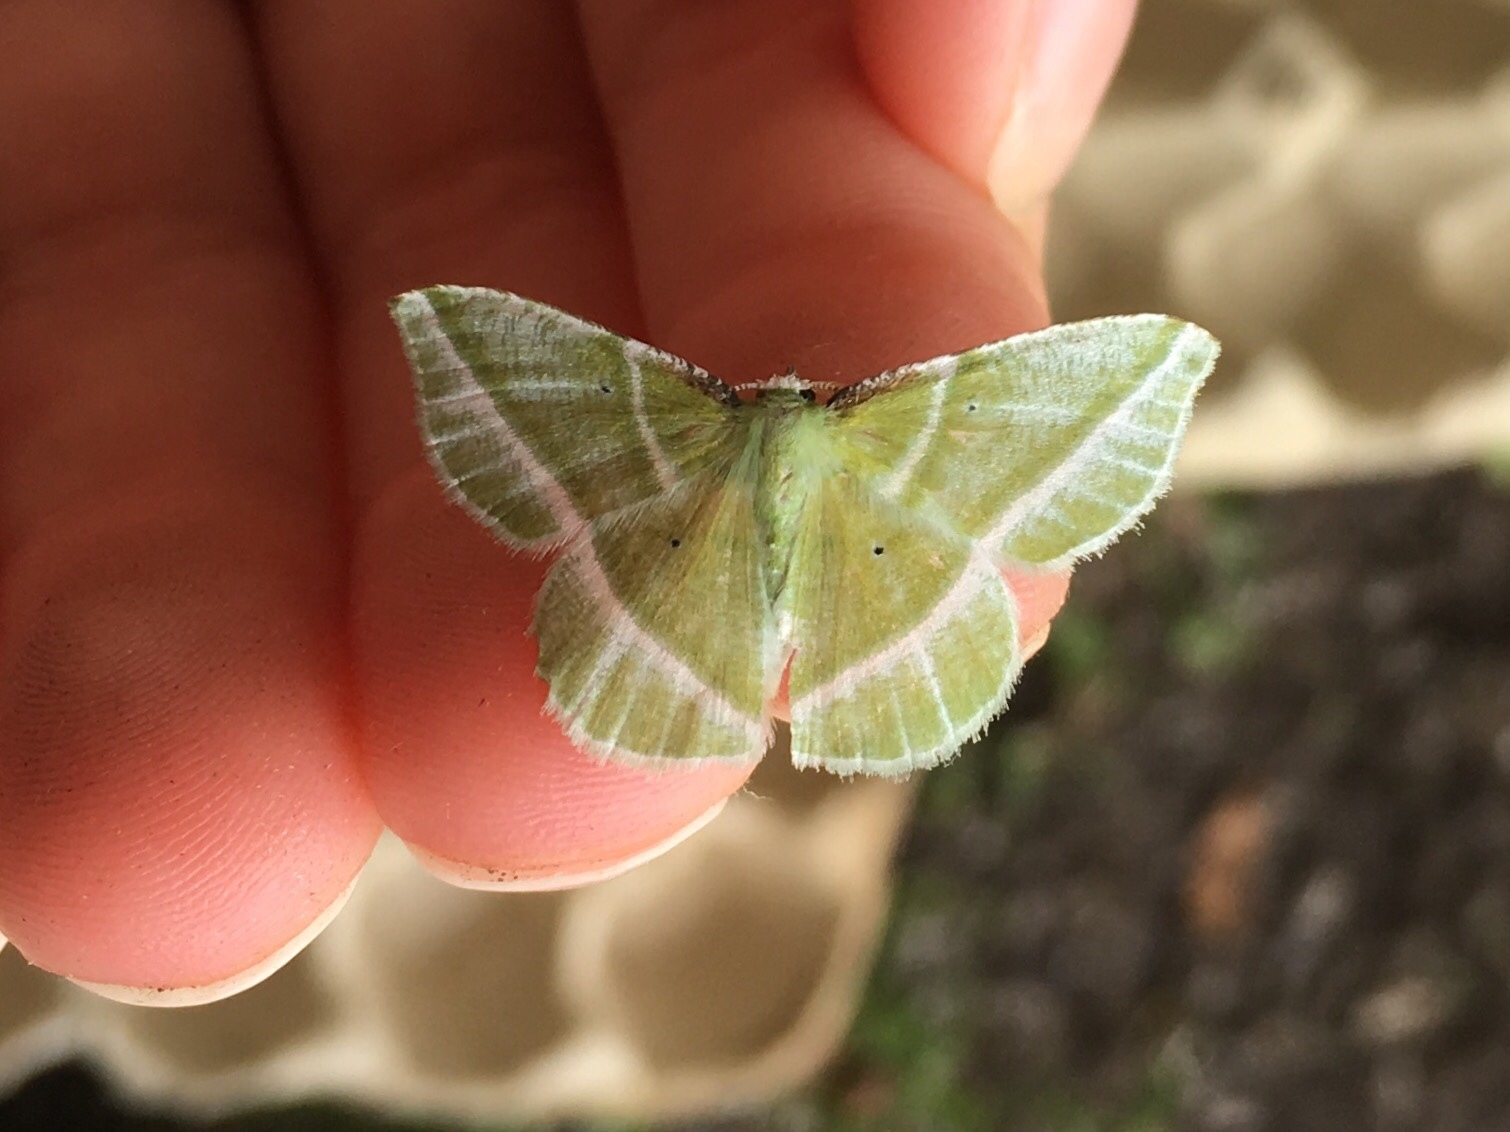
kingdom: Animalia
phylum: Arthropoda
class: Insecta
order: Lepidoptera
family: Geometridae
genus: Dichorda
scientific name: Dichorda iridaria
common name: Showy emerald
